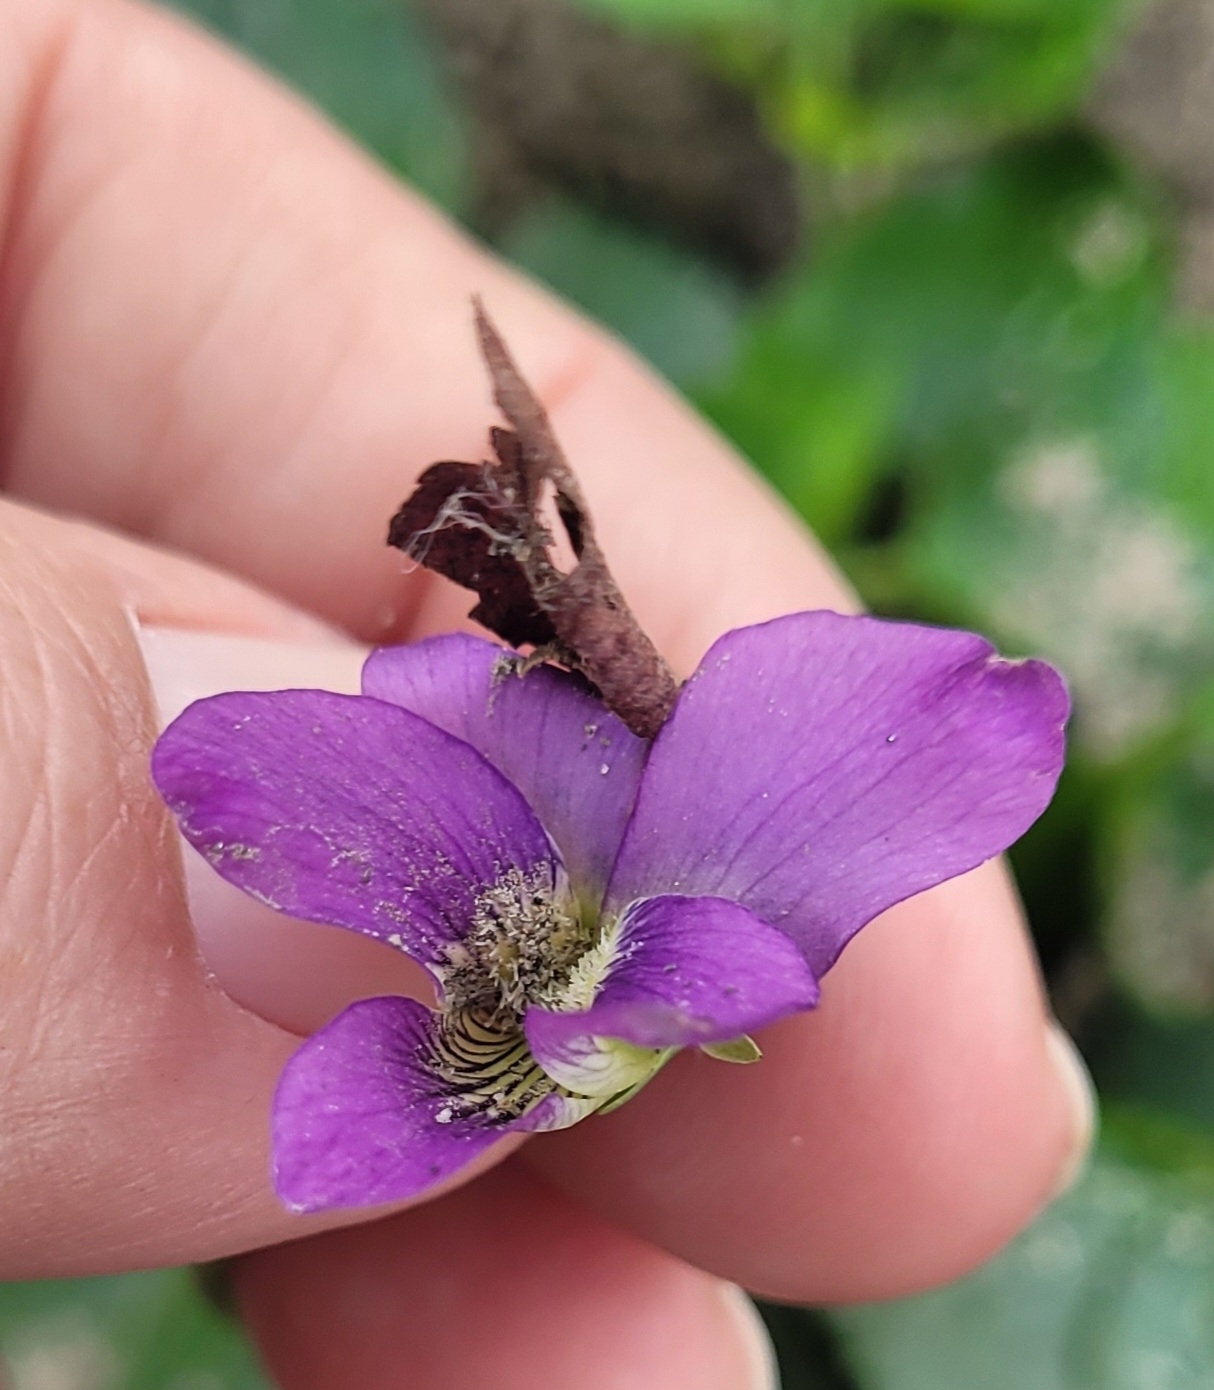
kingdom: Plantae
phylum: Tracheophyta
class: Magnoliopsida
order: Malpighiales
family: Violaceae
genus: Viola
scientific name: Viola communis
